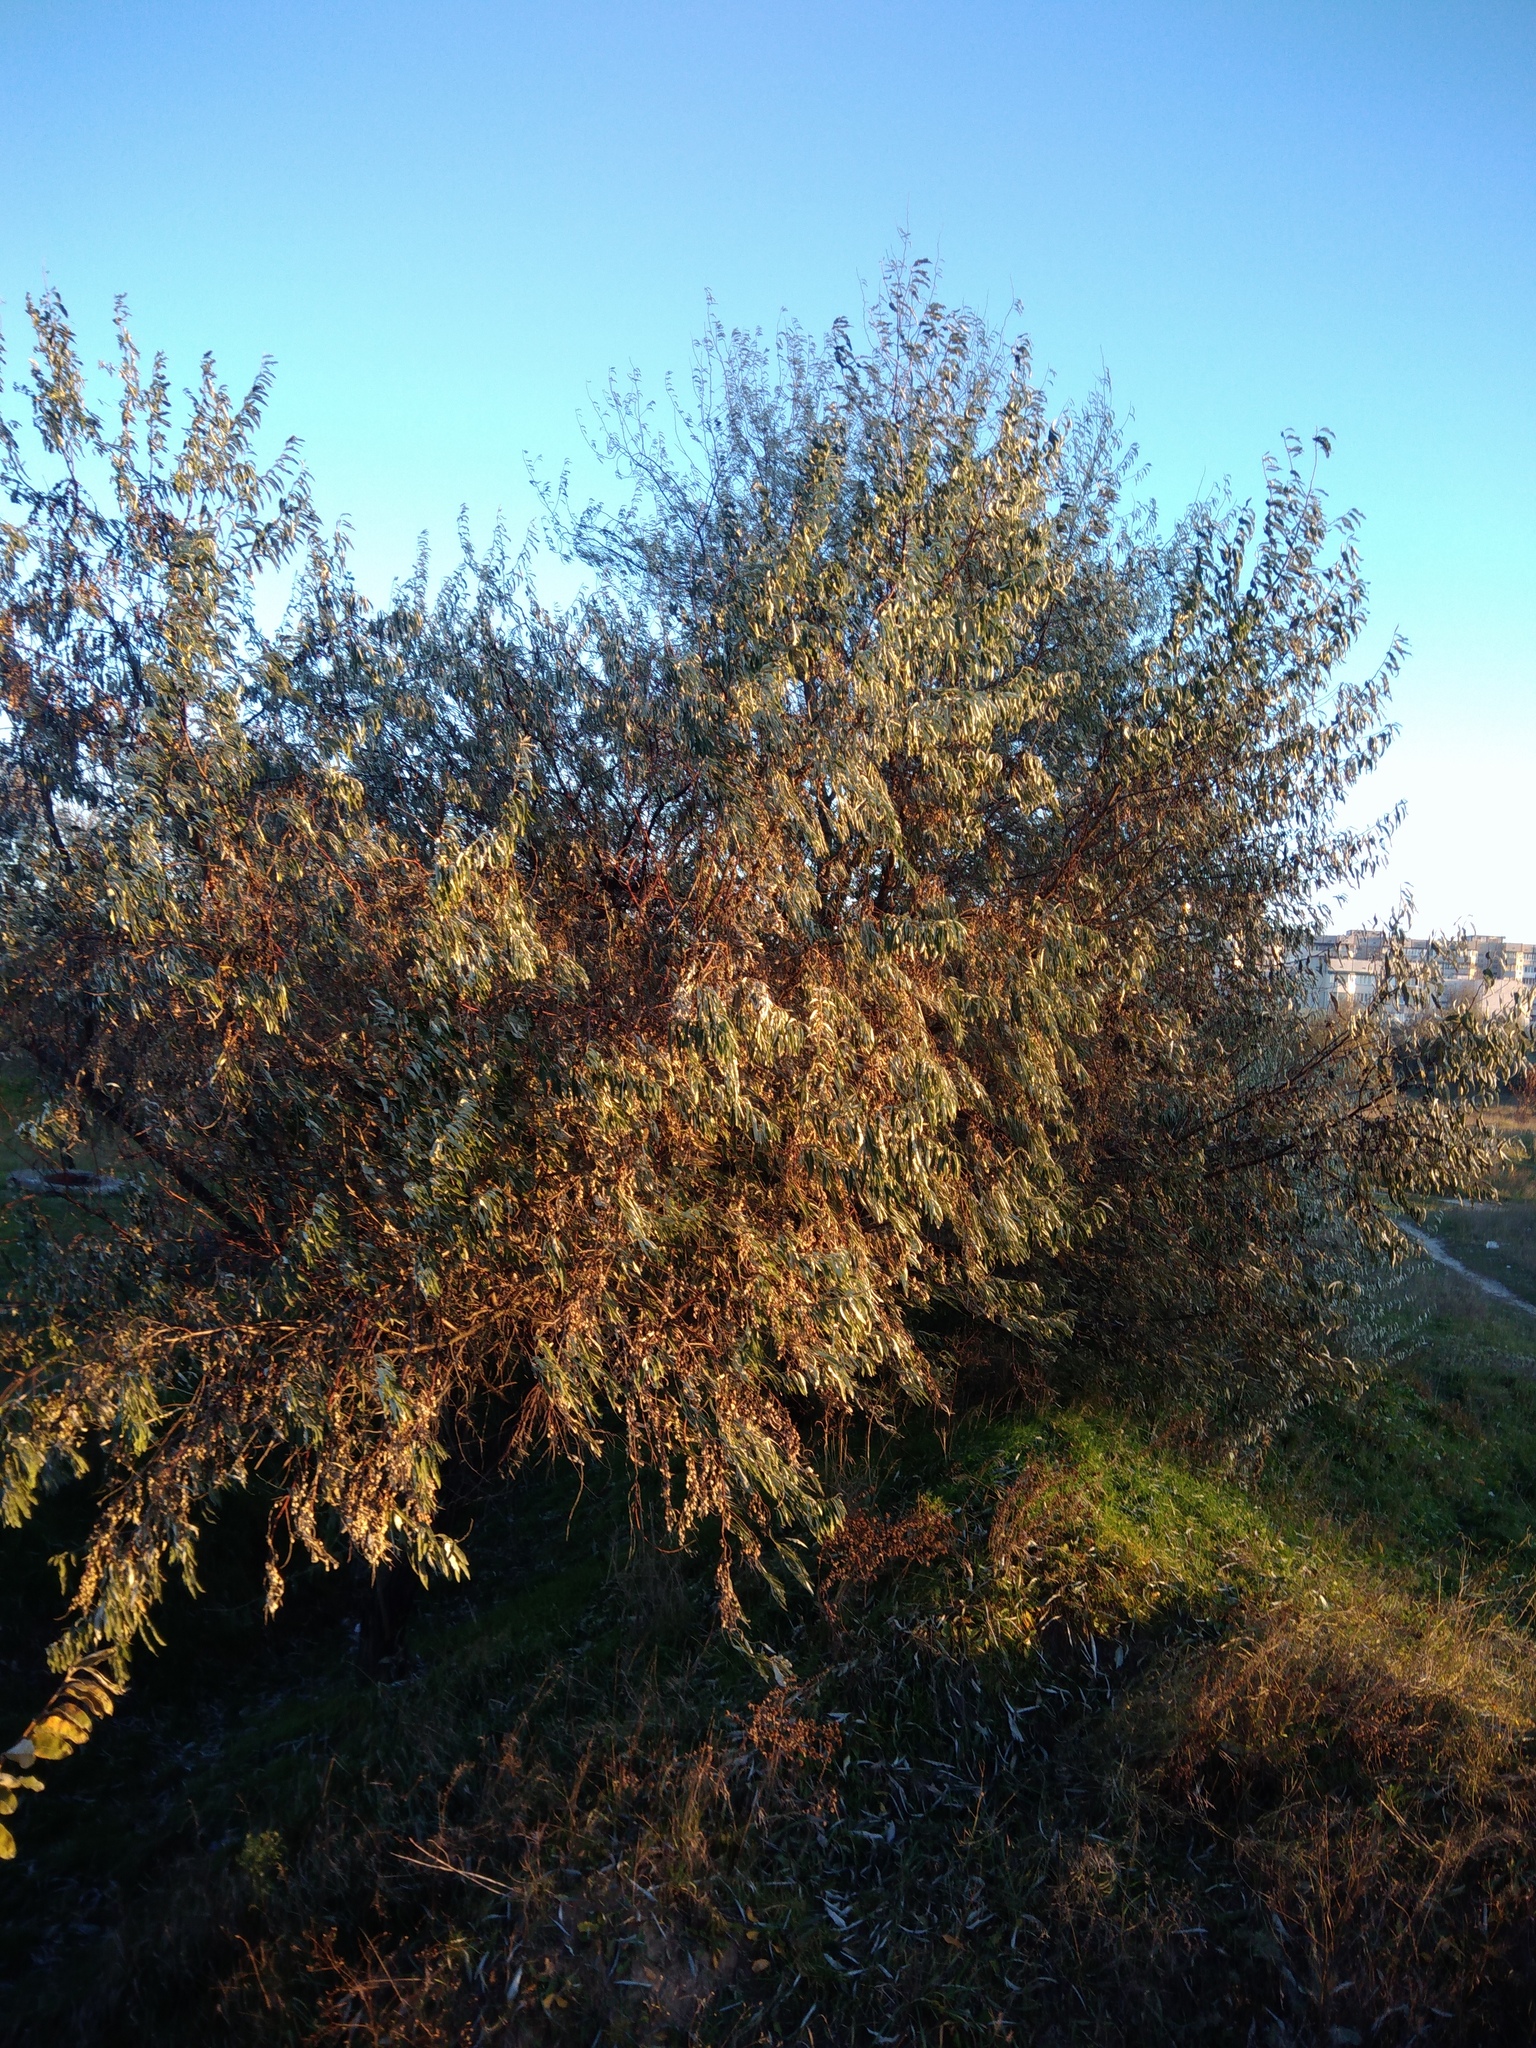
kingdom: Plantae
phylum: Tracheophyta
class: Magnoliopsida
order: Rosales
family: Elaeagnaceae
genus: Elaeagnus
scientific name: Elaeagnus angustifolia
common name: Russian olive
